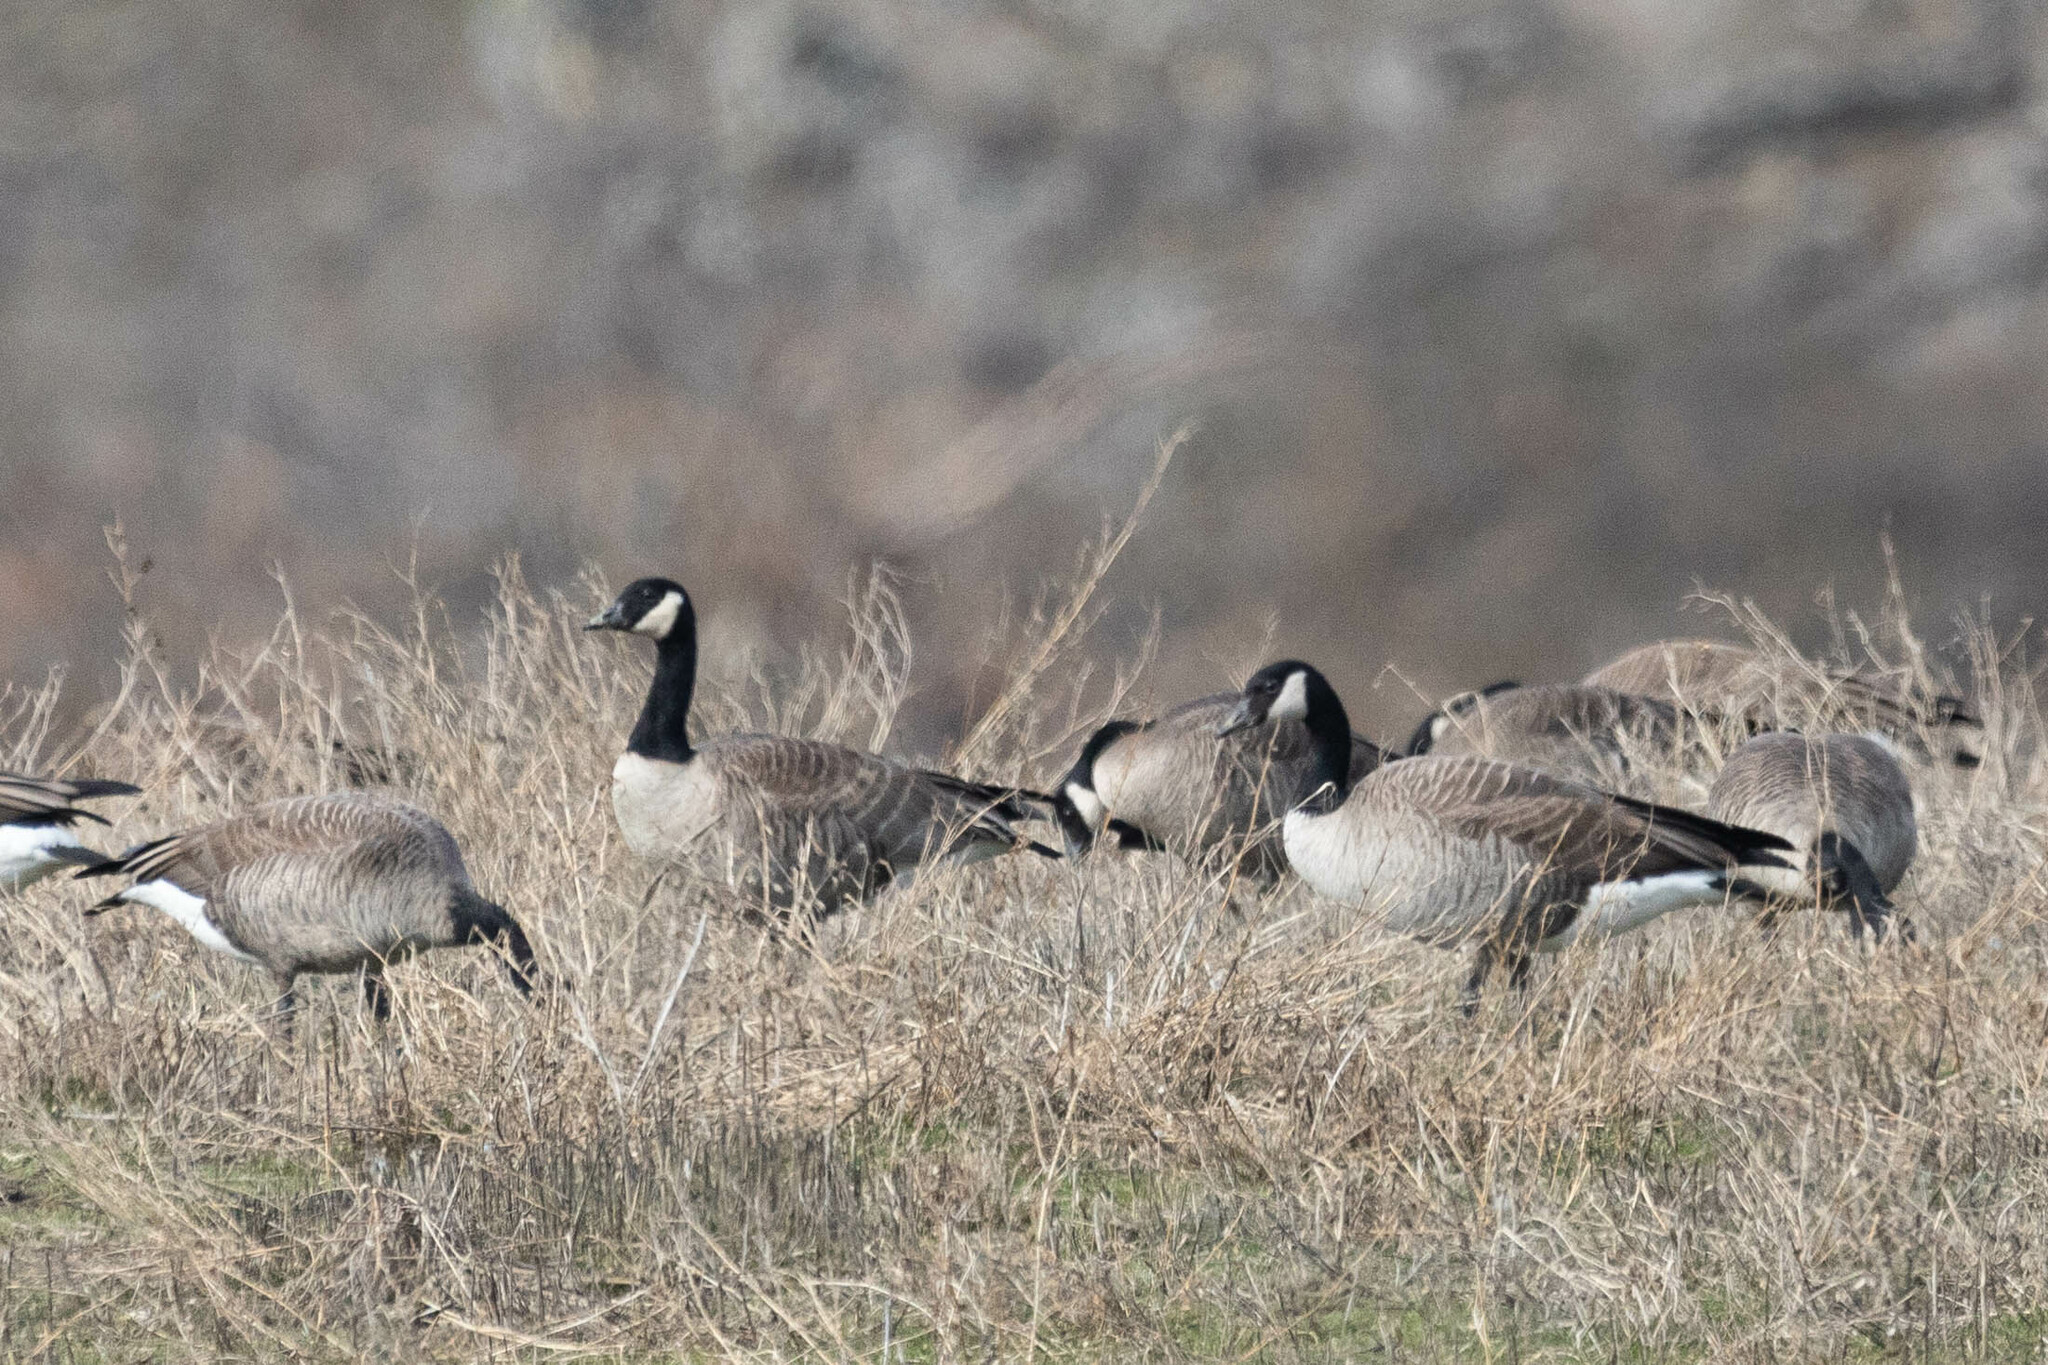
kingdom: Animalia
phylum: Chordata
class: Aves
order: Anseriformes
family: Anatidae
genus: Branta
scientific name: Branta hutchinsii
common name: Cackling goose
